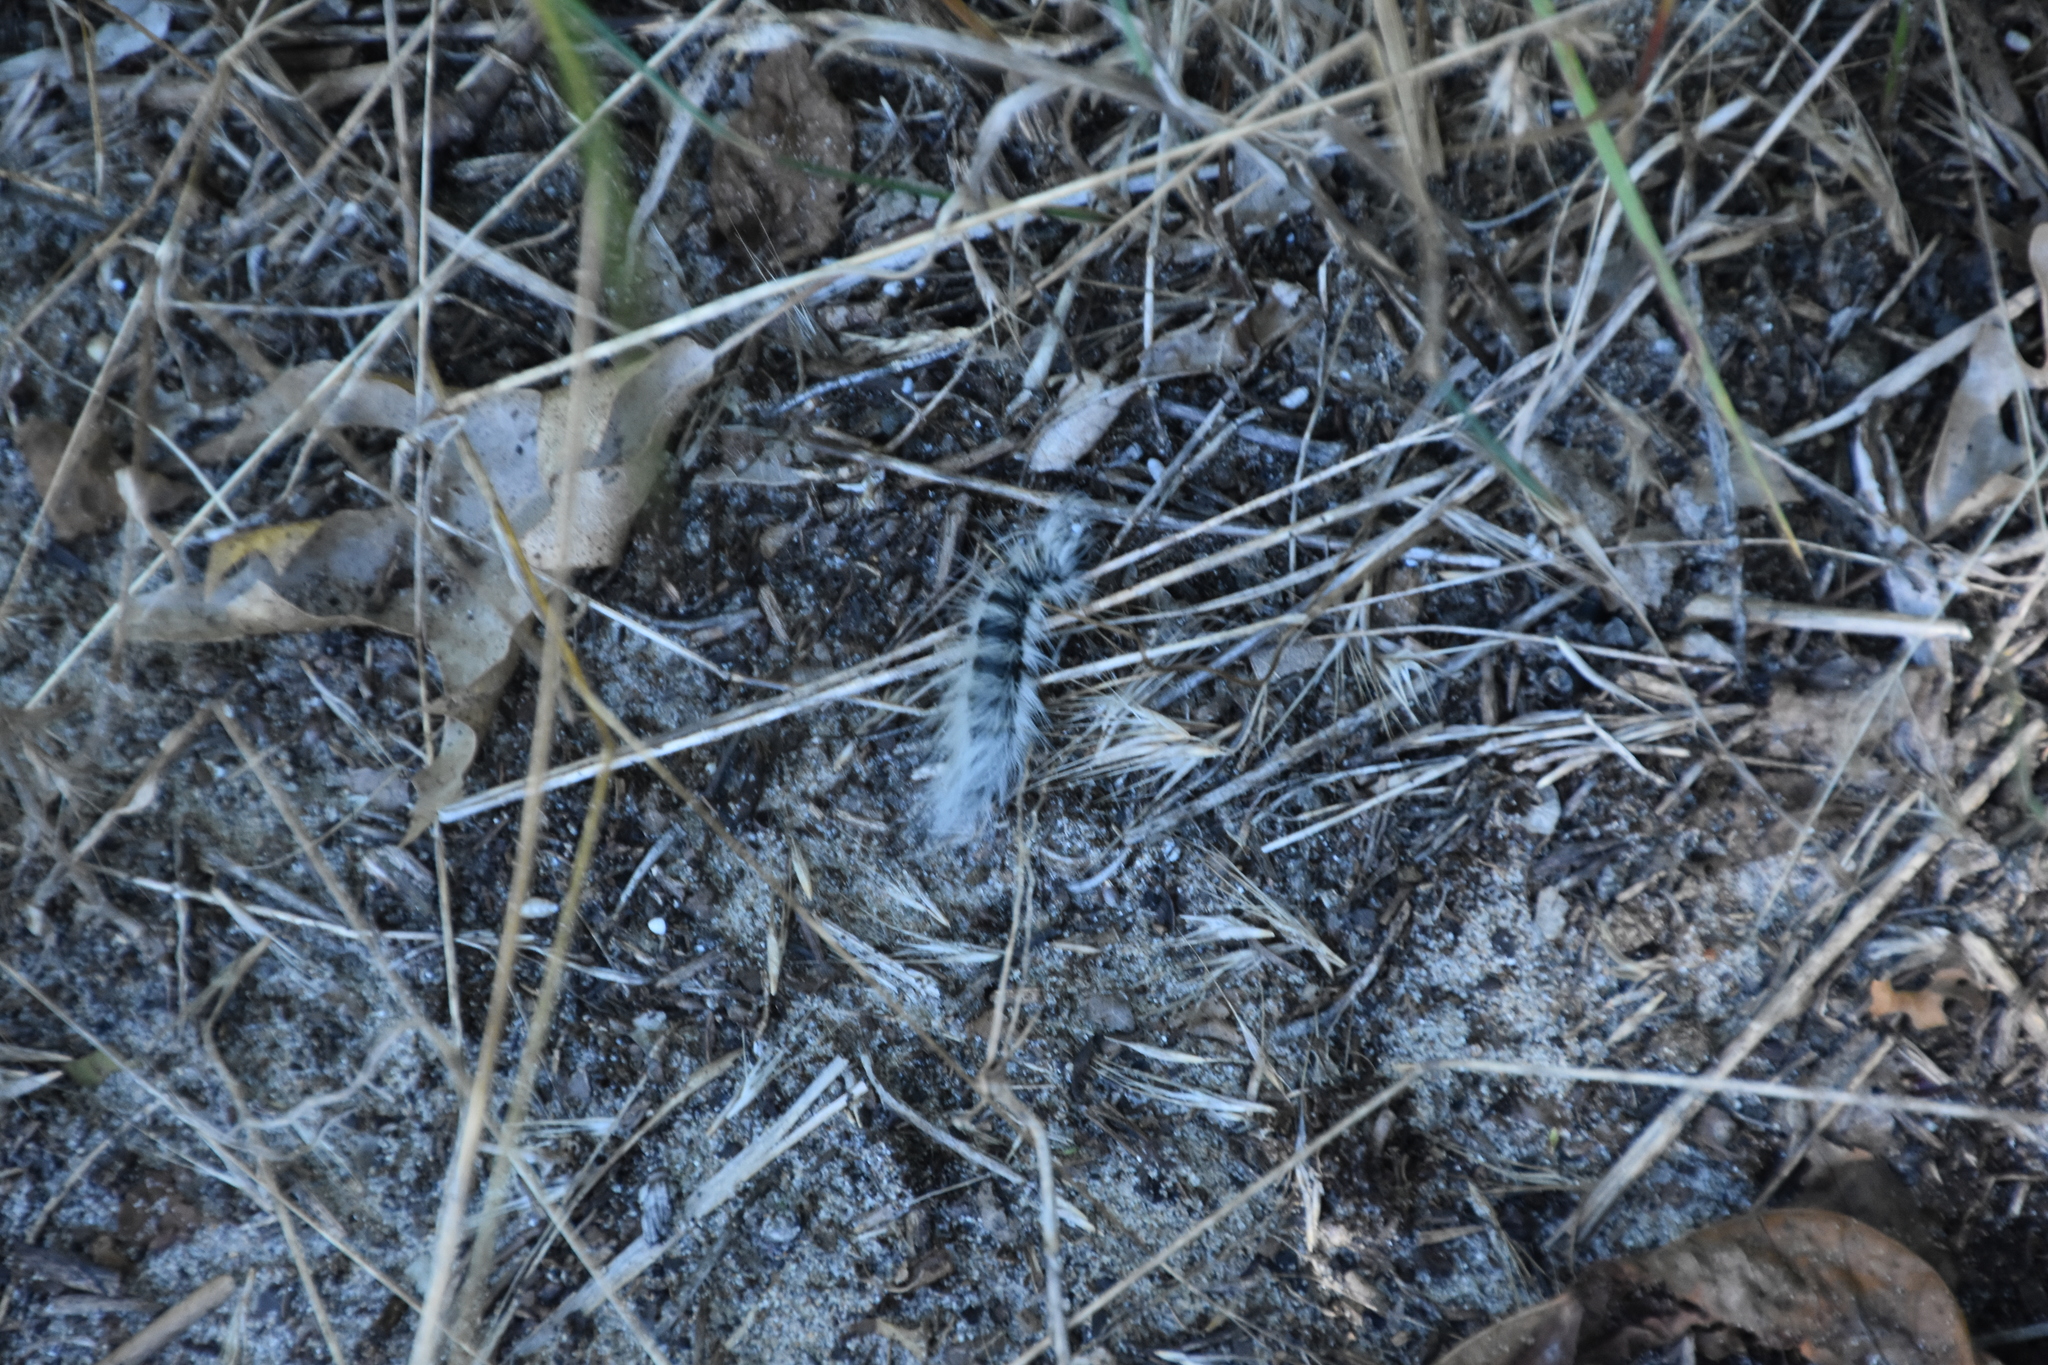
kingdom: Animalia
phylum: Arthropoda
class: Insecta
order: Lepidoptera
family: Notodontidae
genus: Datana
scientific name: Datana integerrima
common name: Walnut caterpillar
